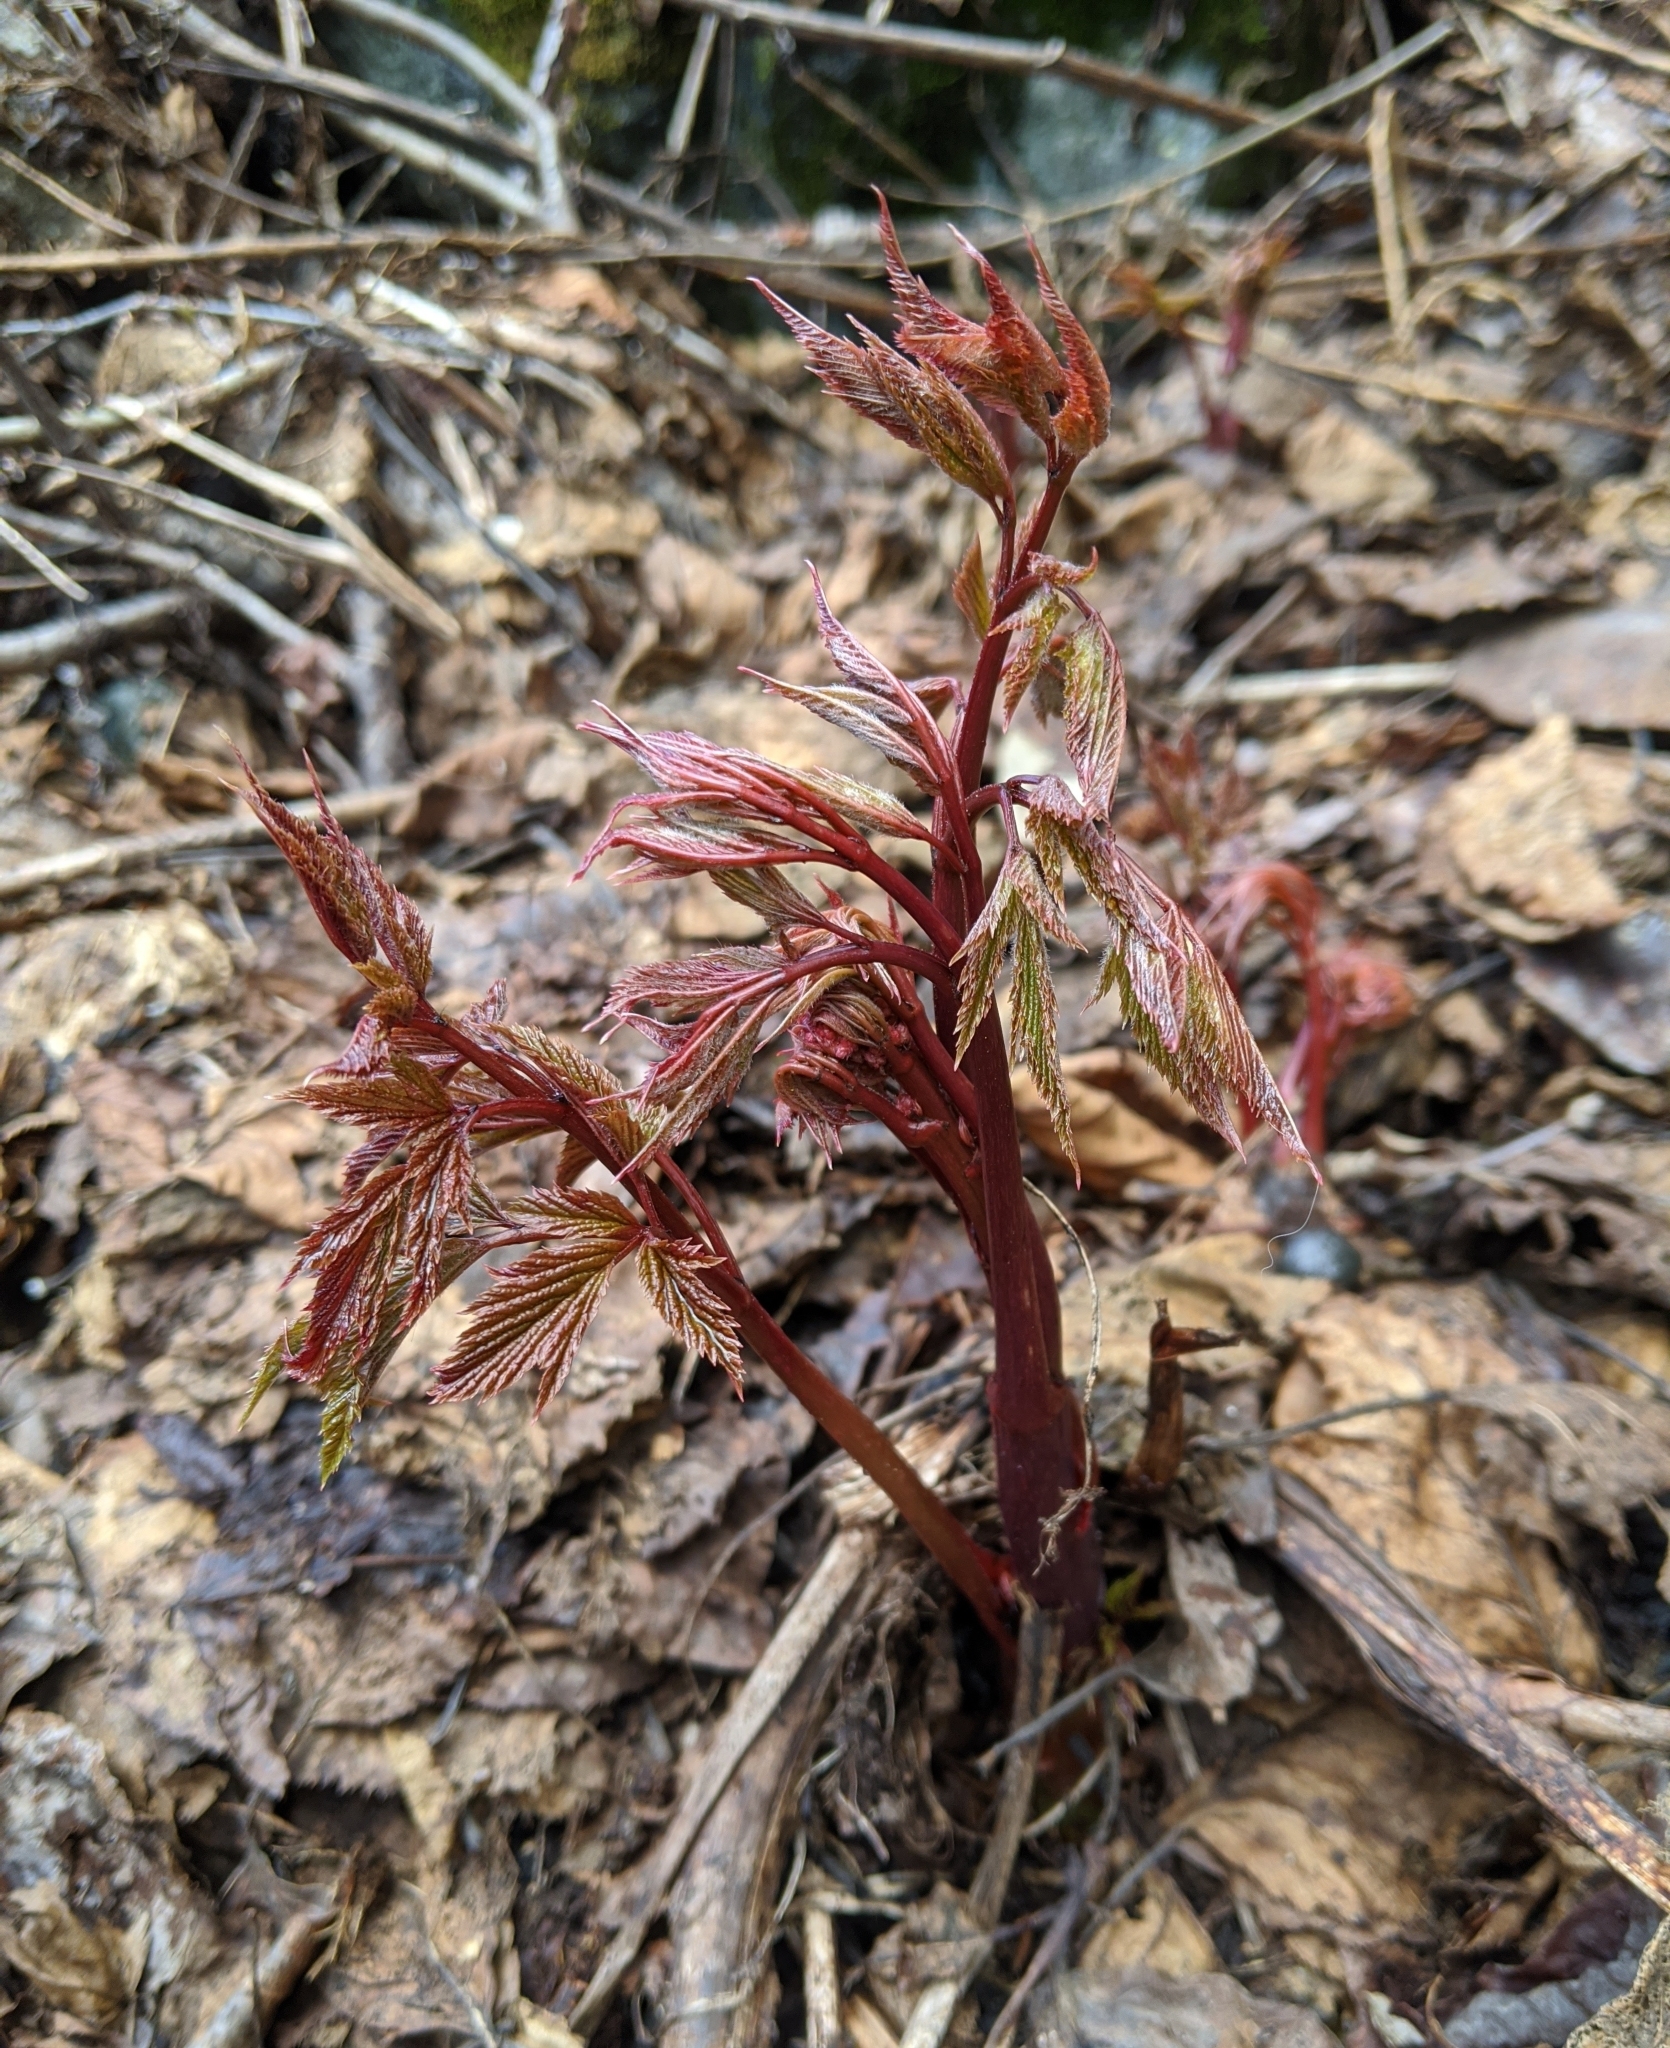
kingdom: Plantae
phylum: Tracheophyta
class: Magnoliopsida
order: Rosales
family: Rosaceae
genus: Aruncus
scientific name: Aruncus dioicus
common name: Buck's-beard
